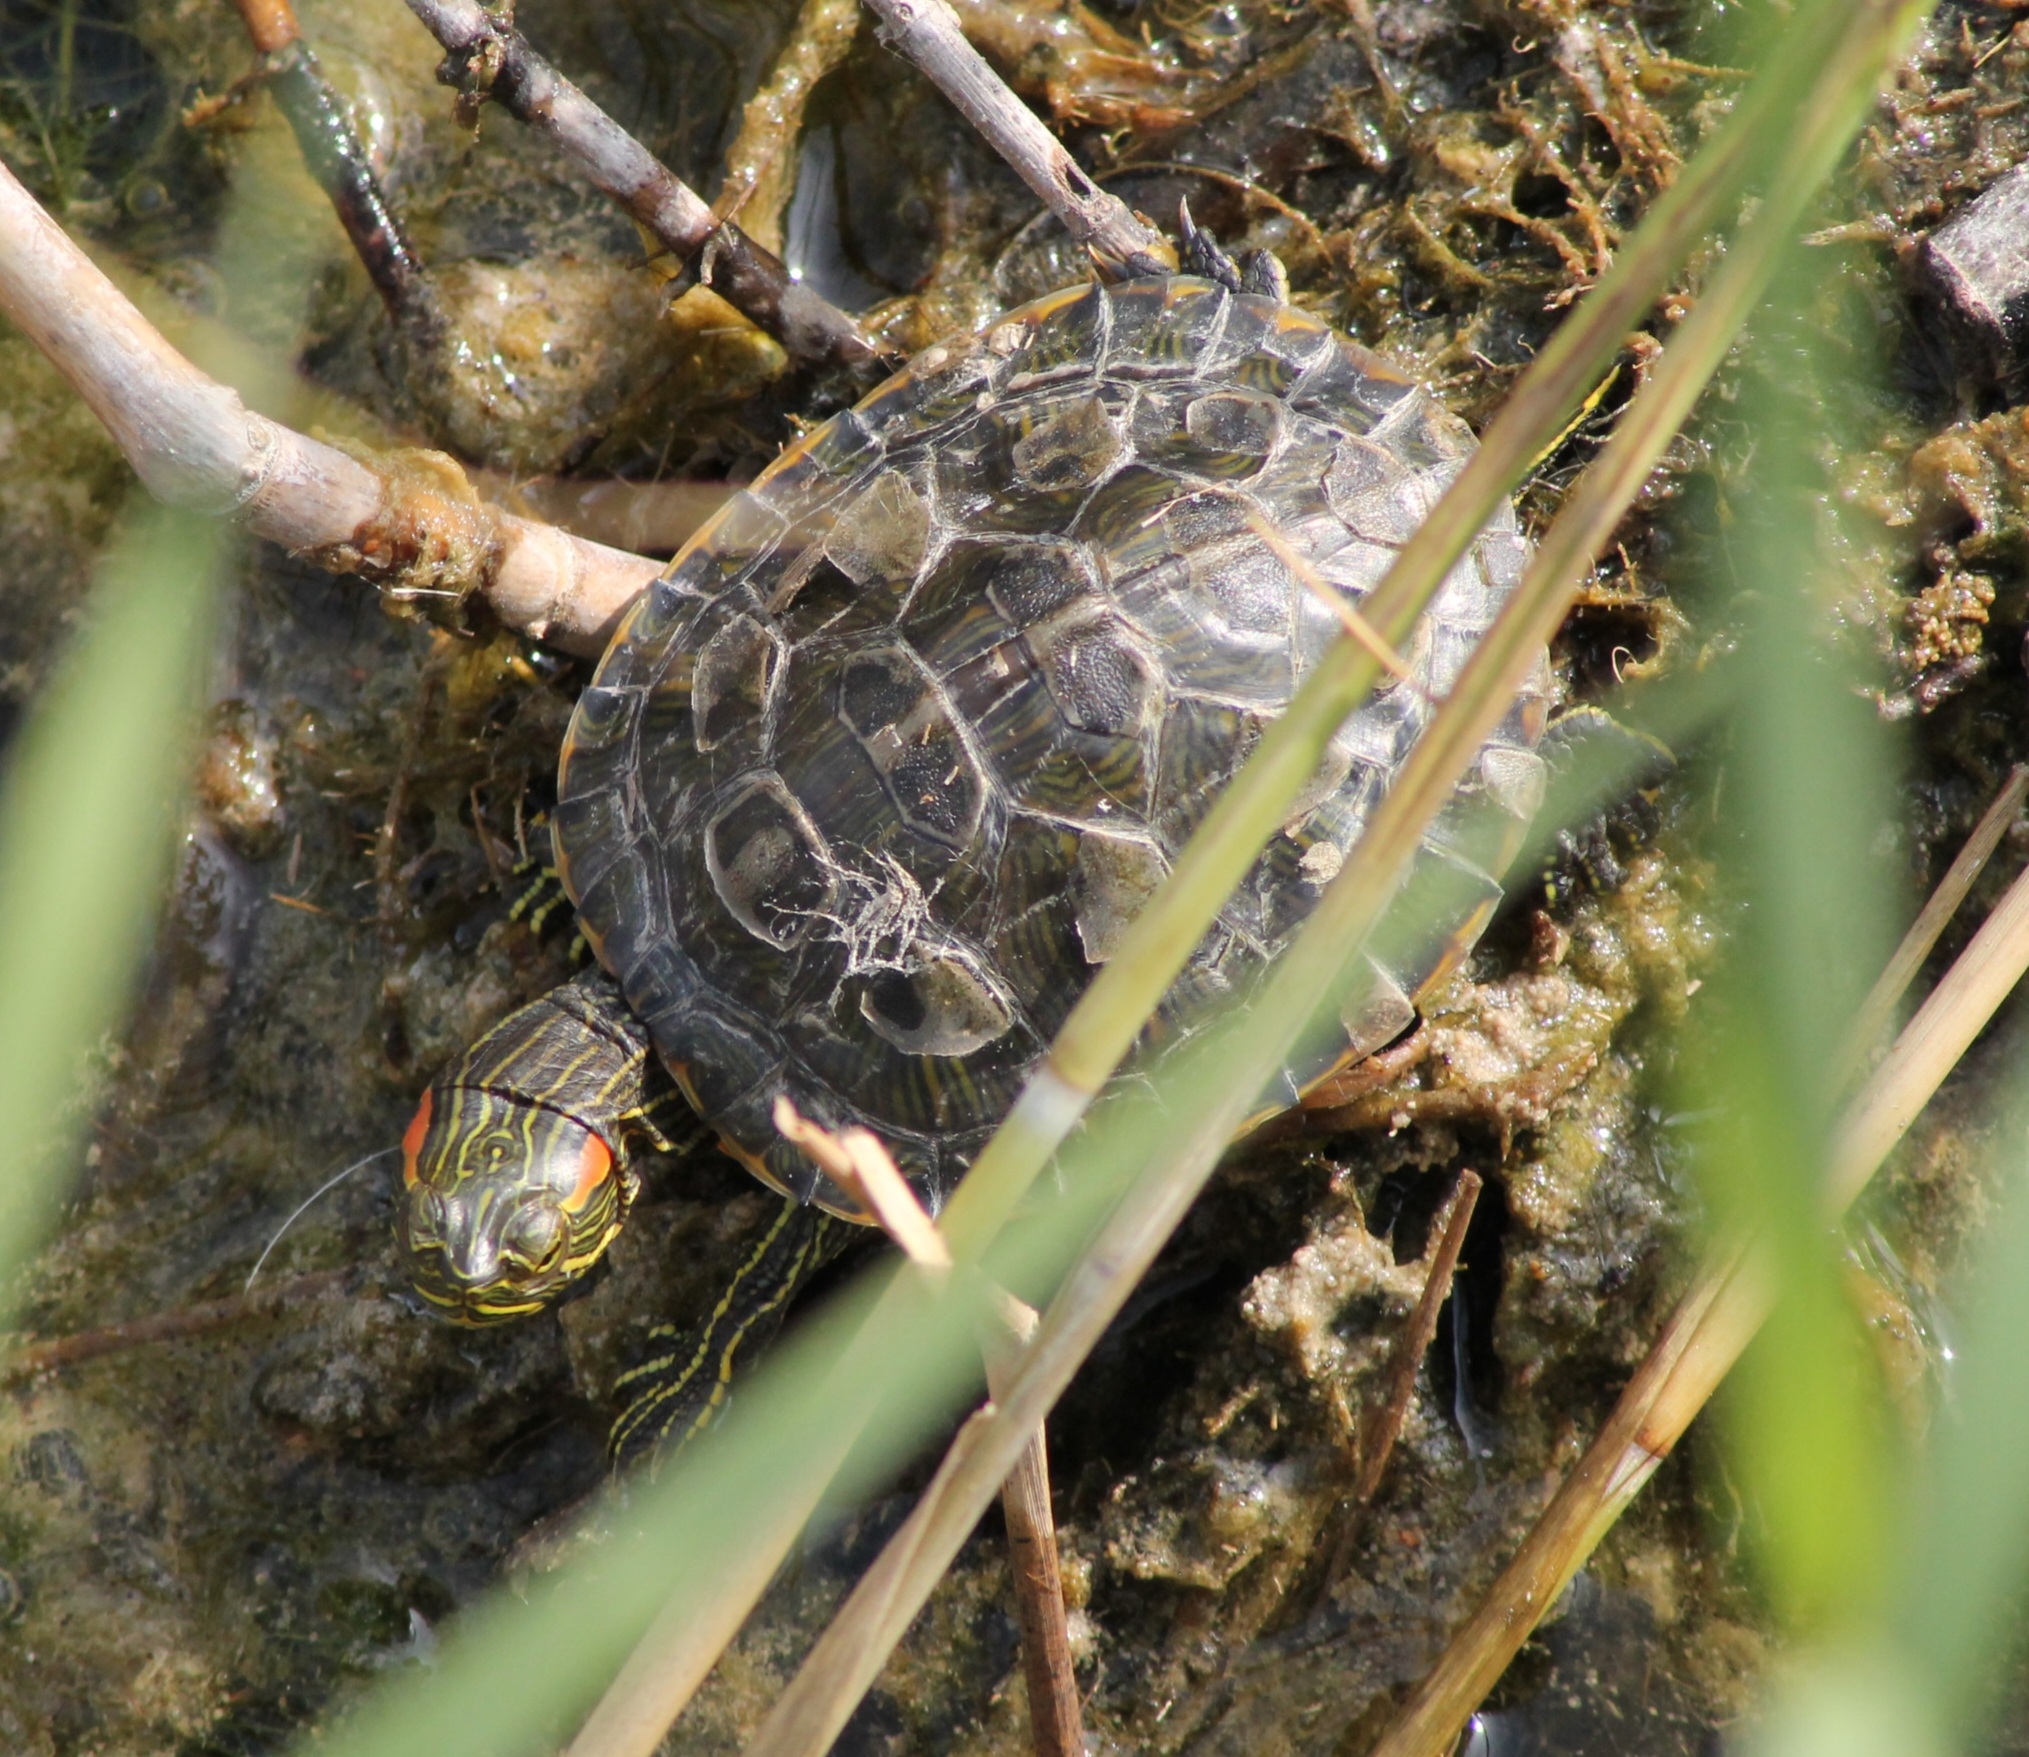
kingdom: Animalia
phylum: Chordata
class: Testudines
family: Emydidae
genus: Trachemys
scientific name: Trachemys scripta
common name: Slider
